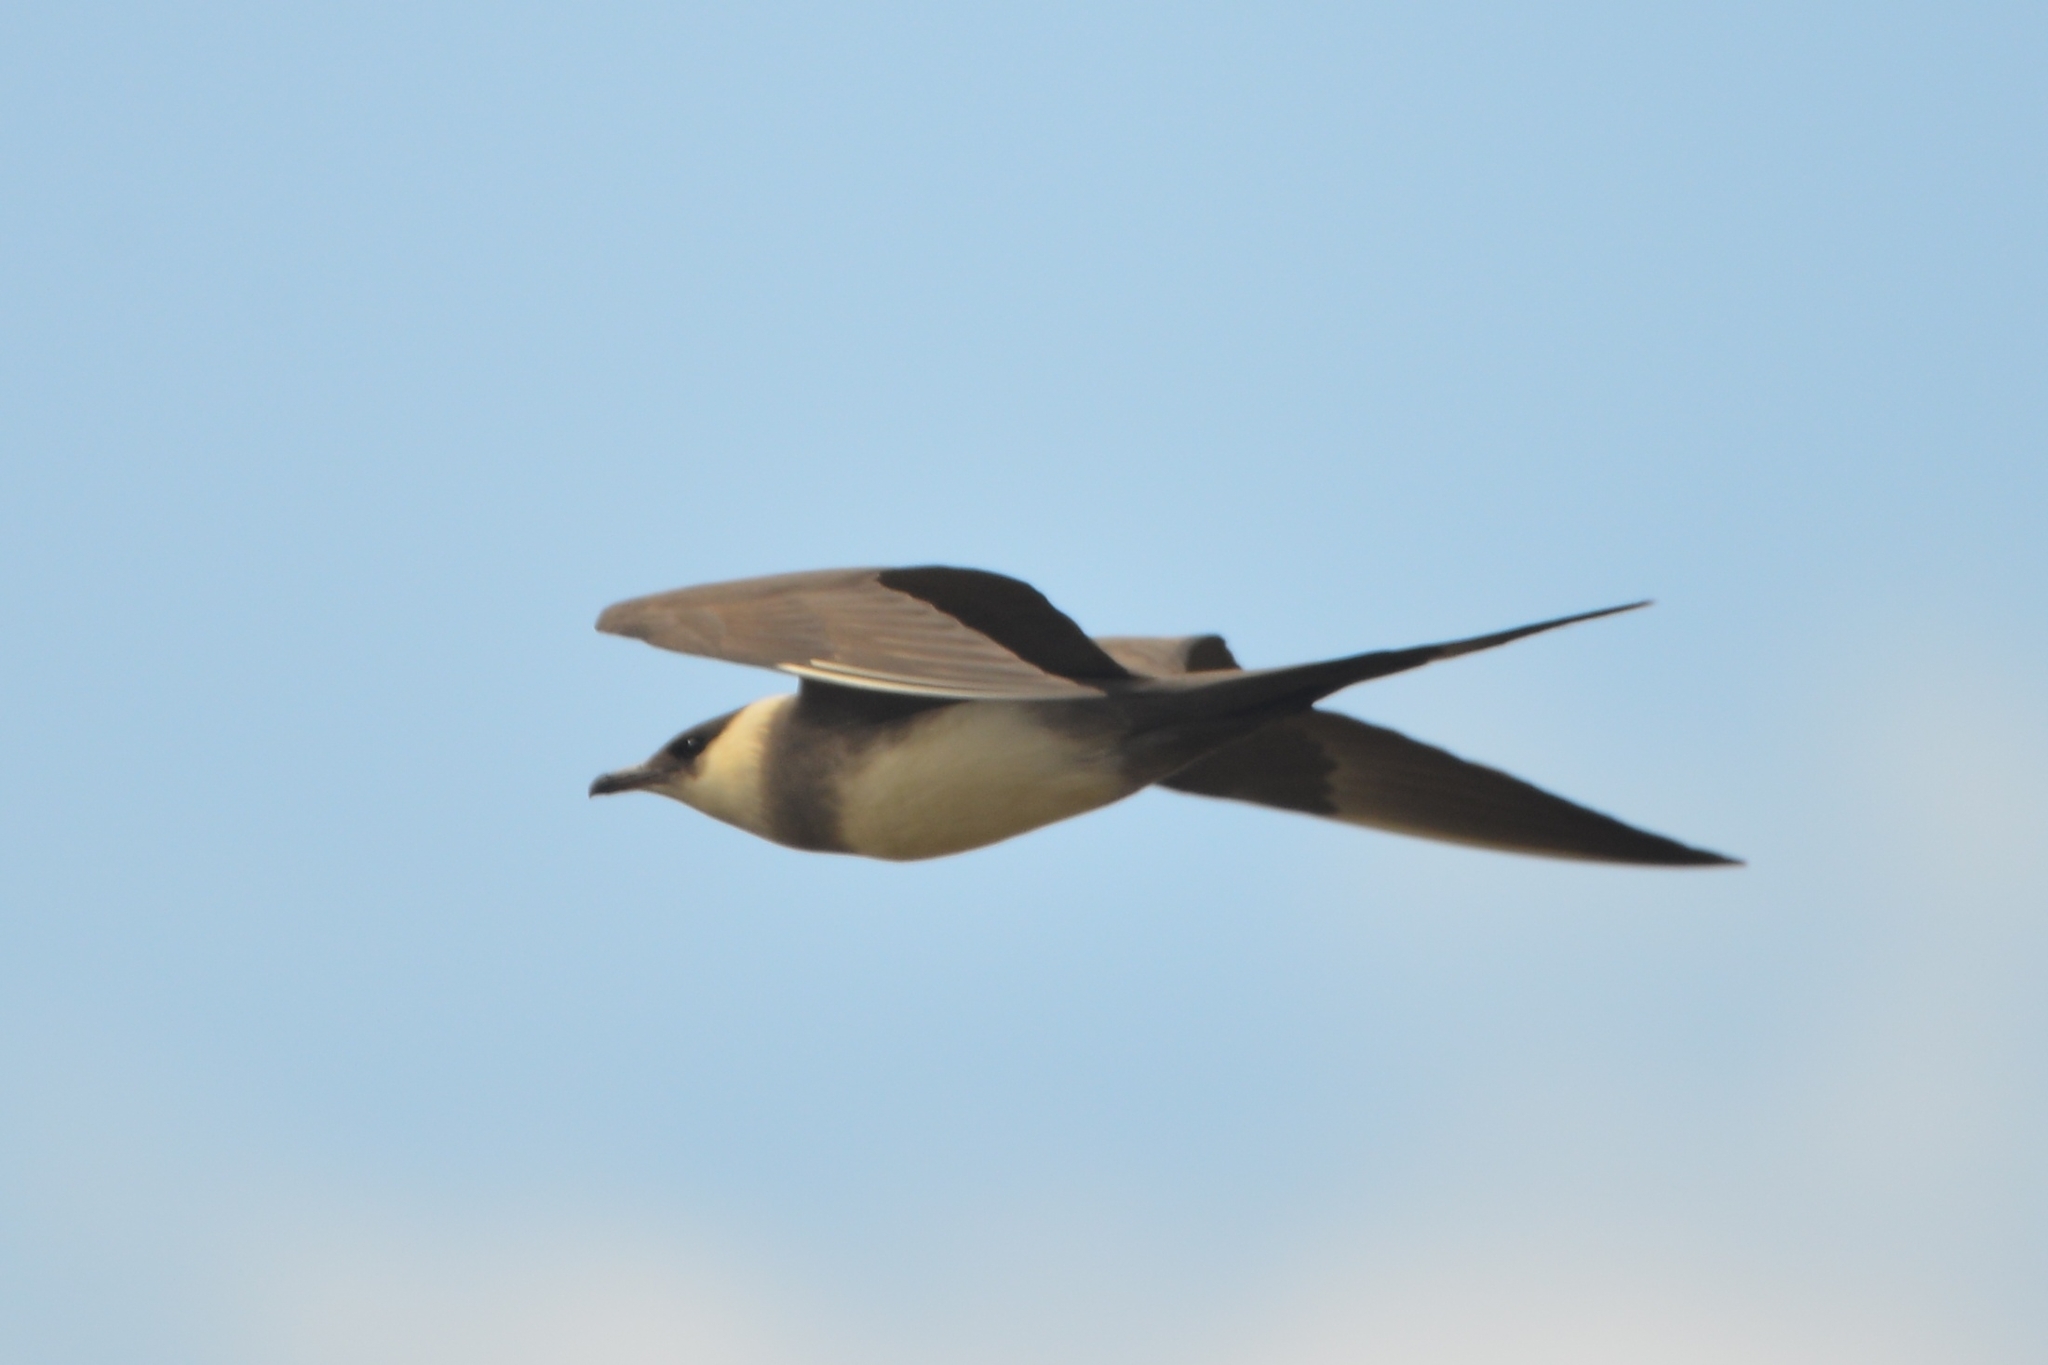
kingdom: Animalia
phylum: Chordata
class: Aves
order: Charadriiformes
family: Stercorariidae
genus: Stercorarius
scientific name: Stercorarius parasiticus
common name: Parasitic jaeger
